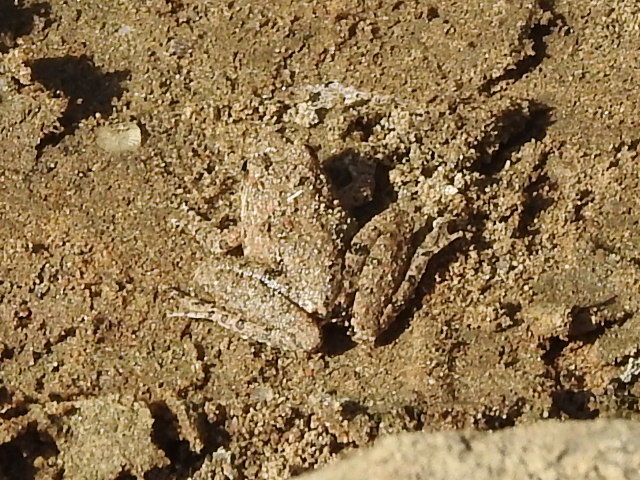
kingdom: Animalia
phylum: Chordata
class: Amphibia
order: Anura
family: Hylidae
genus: Acris
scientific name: Acris blanchardi
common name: Blanchard's cricket frog
